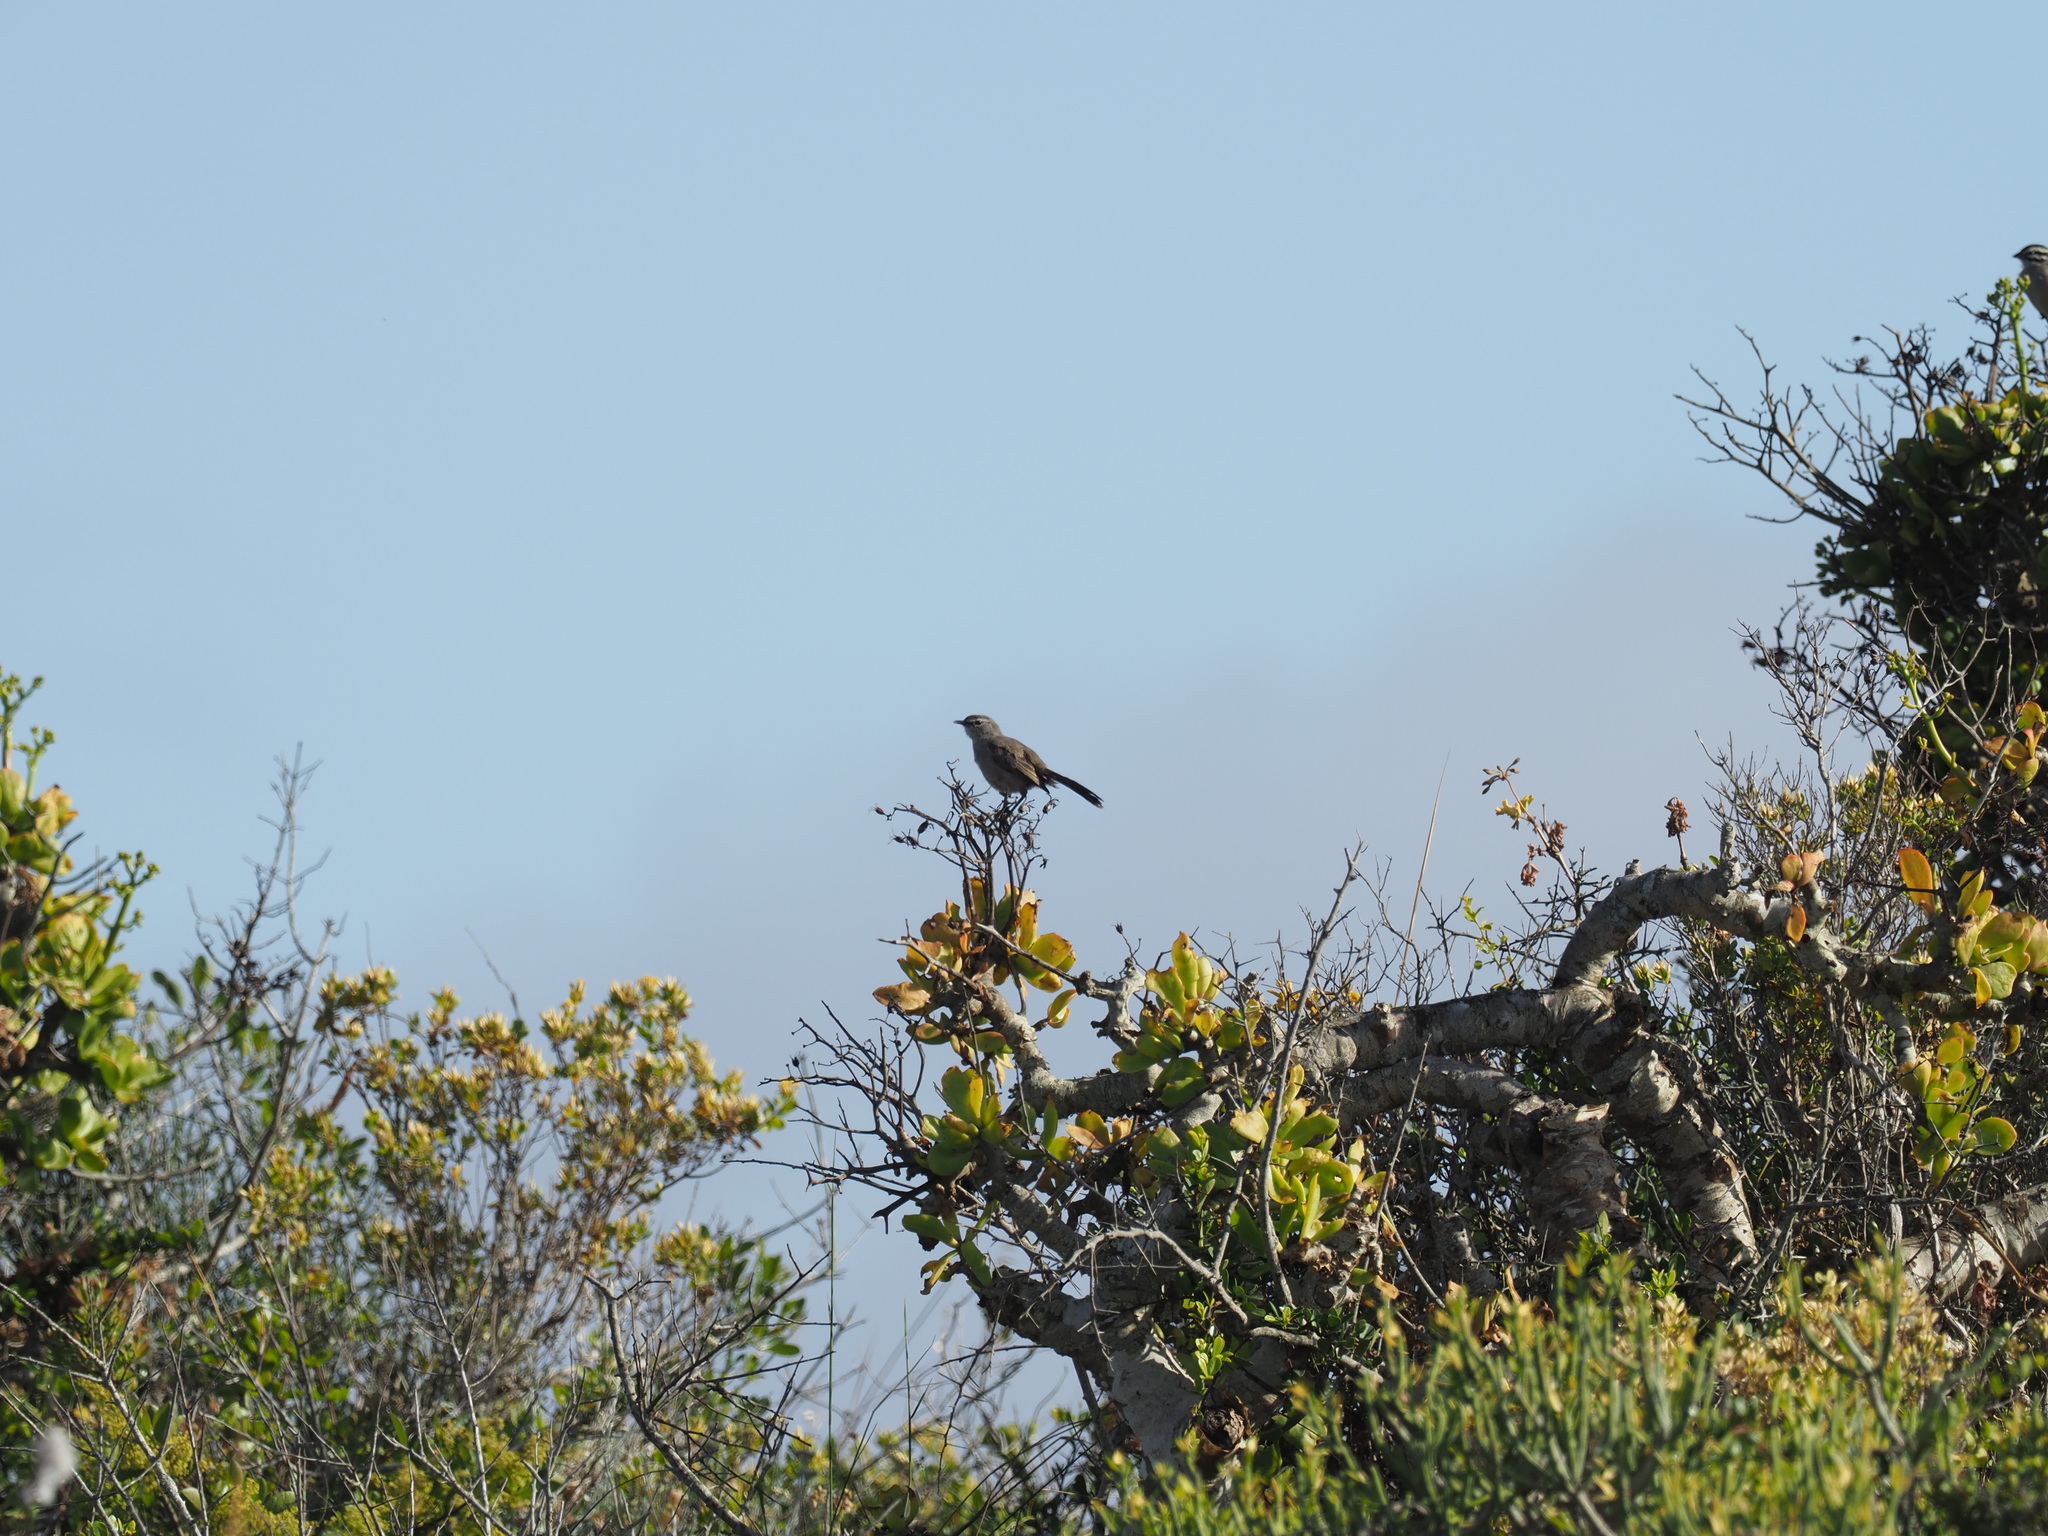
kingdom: Animalia
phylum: Chordata
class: Aves
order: Passeriformes
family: Muscicapidae
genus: Erythropygia
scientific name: Erythropygia coryphoeus
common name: Karoo scrub robin
